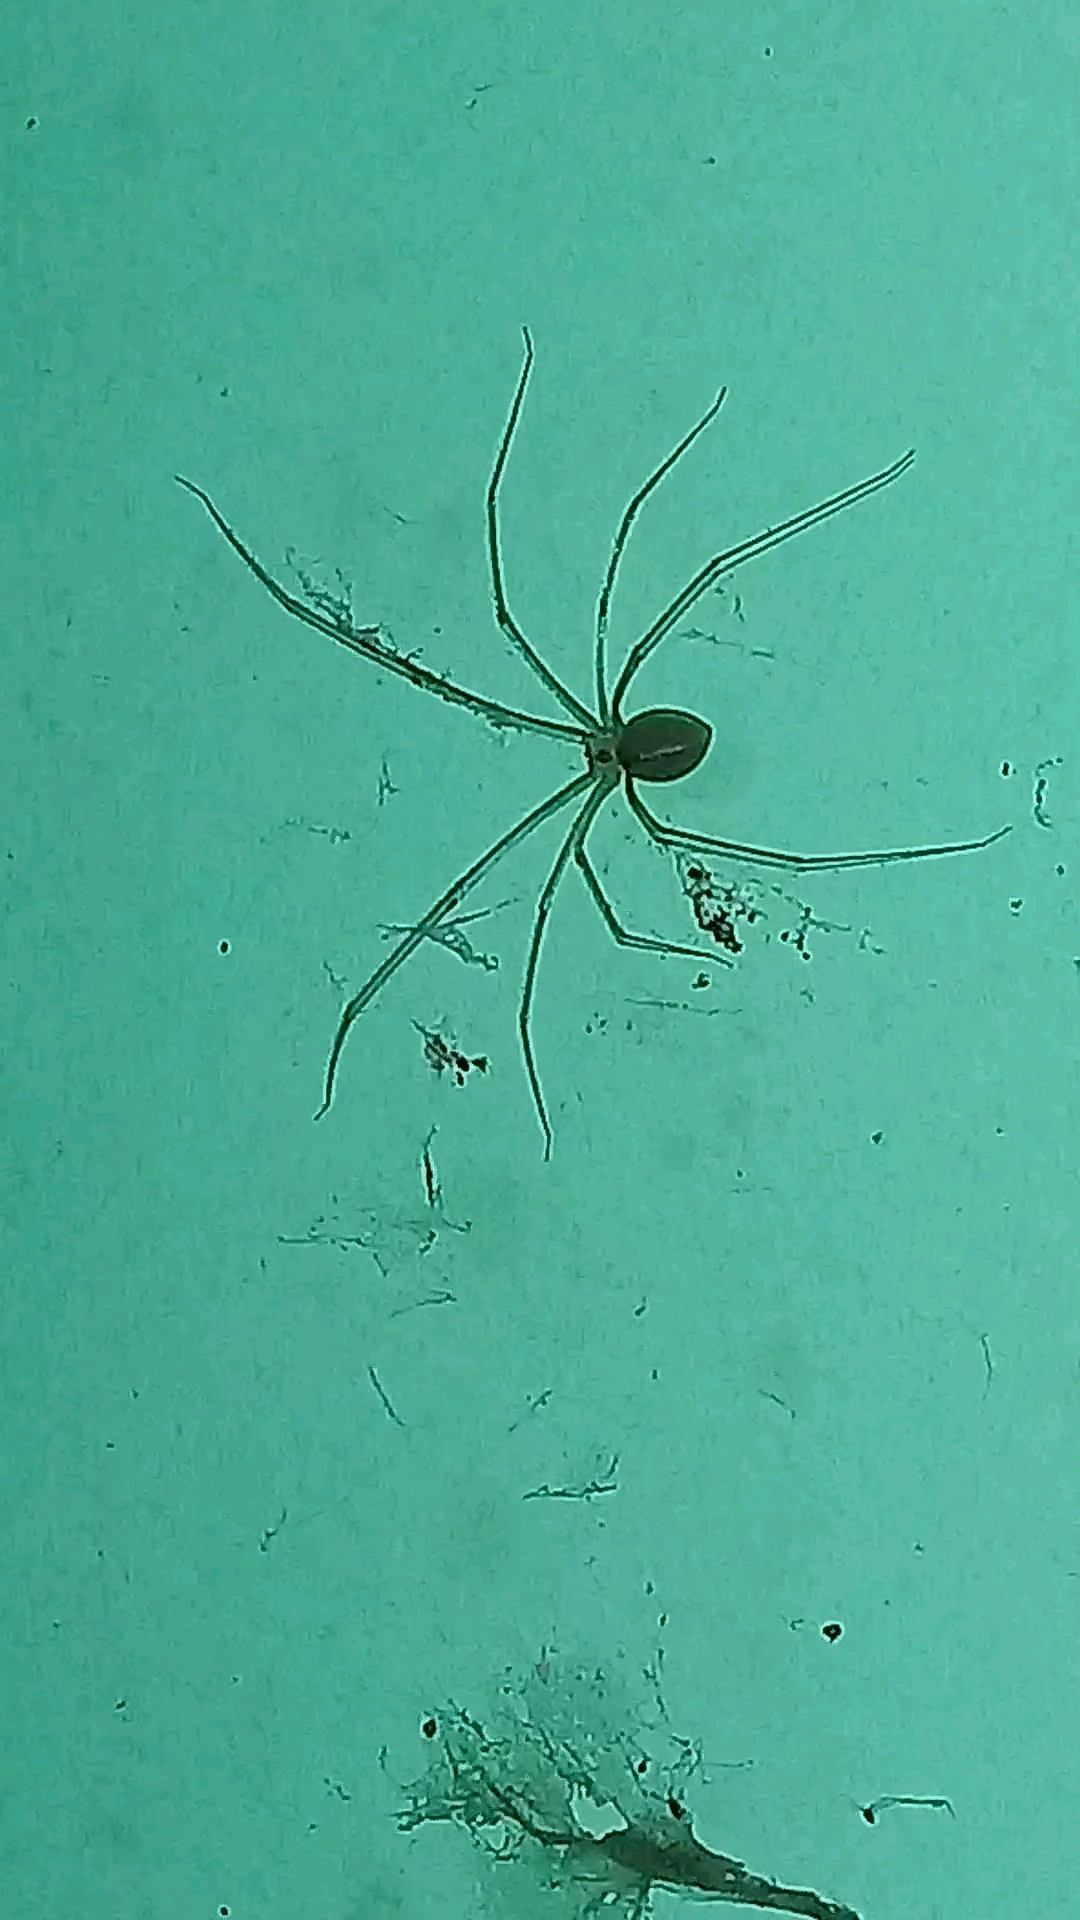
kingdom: Animalia
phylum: Arthropoda
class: Arachnida
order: Araneae
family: Pholcidae
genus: Pholcus
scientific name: Pholcus phalangioides
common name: Longbodied cellar spider
